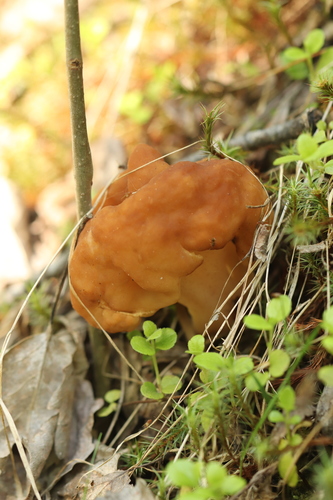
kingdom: Fungi
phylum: Ascomycota
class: Pezizomycetes
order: Pezizales
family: Discinaceae
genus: Gyromitra
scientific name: Gyromitra esculenta
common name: False morel
